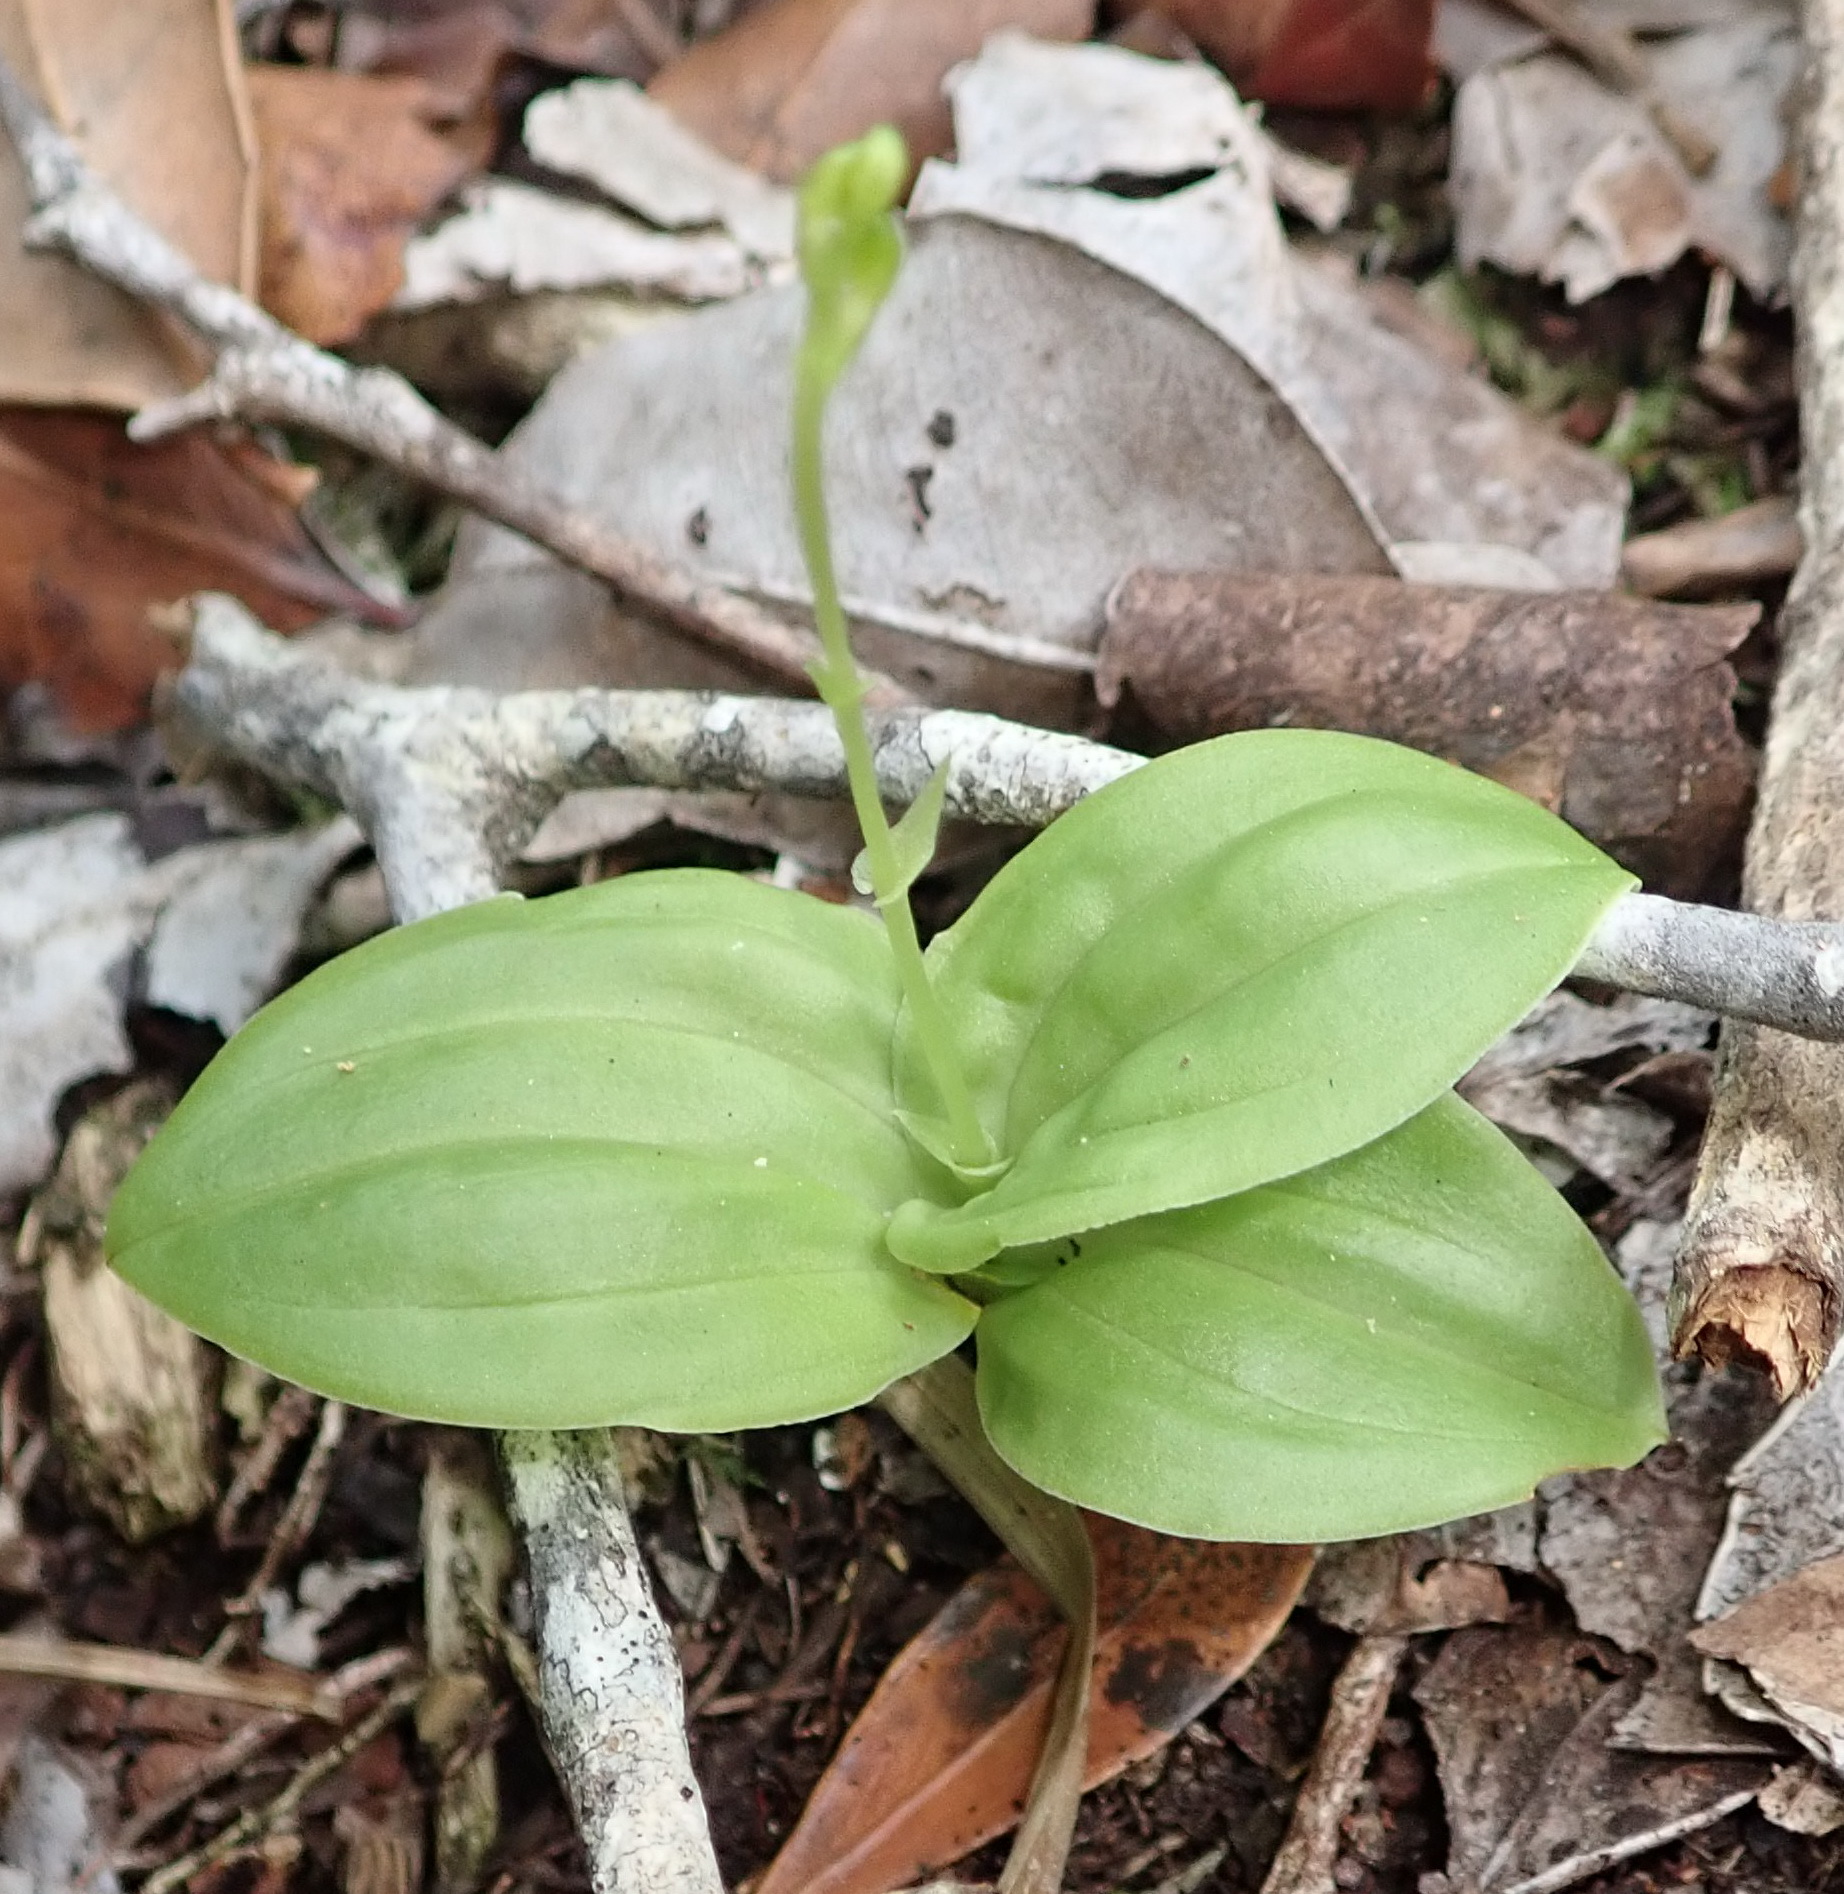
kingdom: Plantae
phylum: Tracheophyta
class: Liliopsida
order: Asparagales
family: Orchidaceae
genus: Liparis
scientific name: Liparis remota
